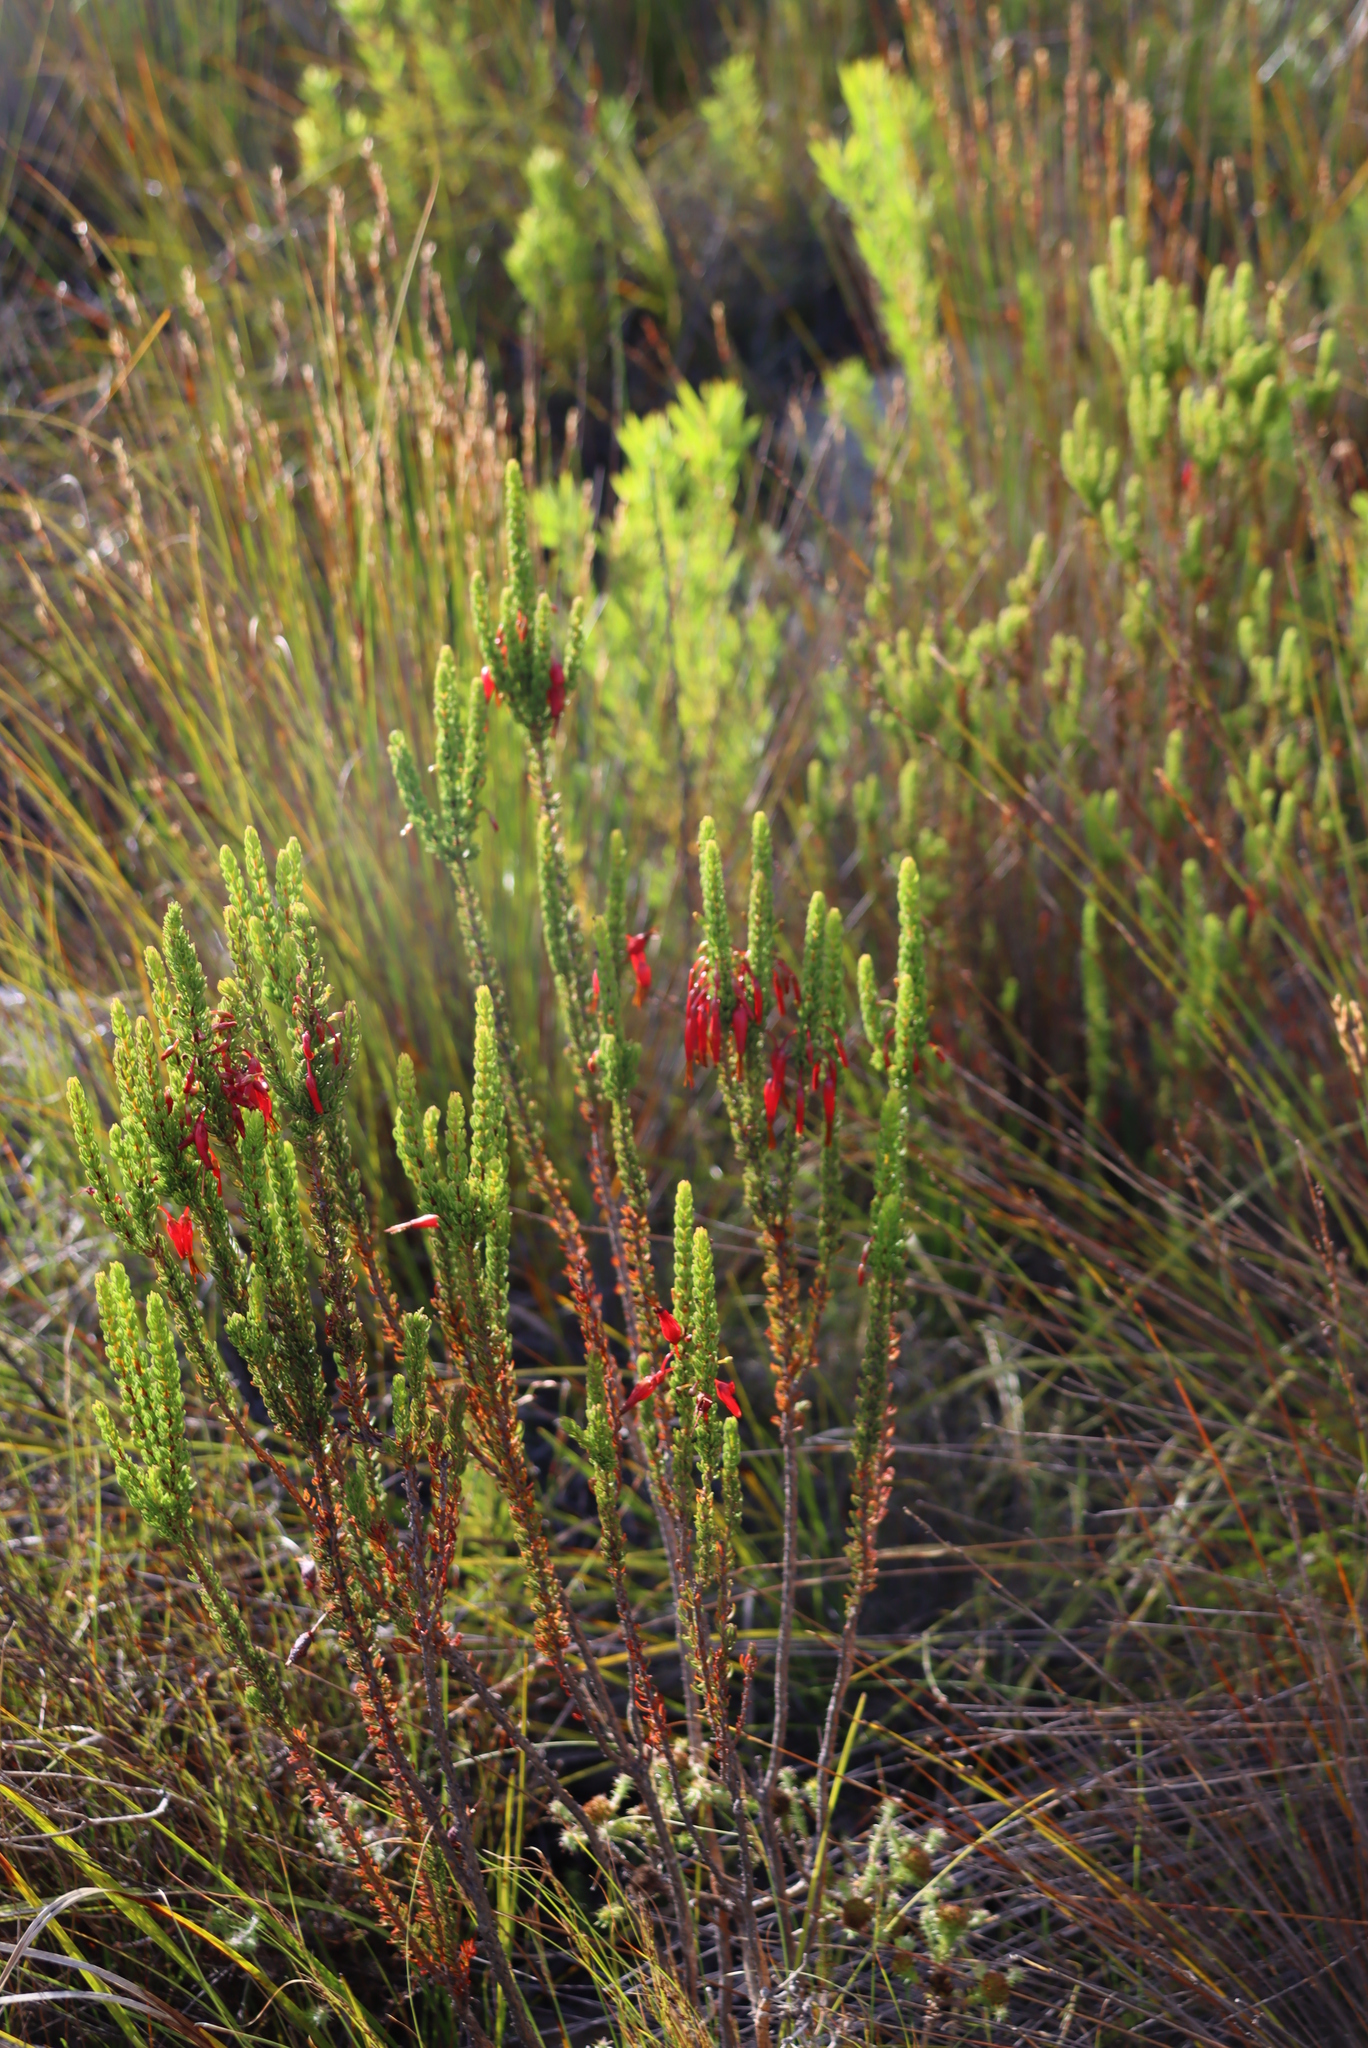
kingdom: Plantae
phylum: Tracheophyta
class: Magnoliopsida
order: Ericales
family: Ericaceae
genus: Erica
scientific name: Erica plukenetii
